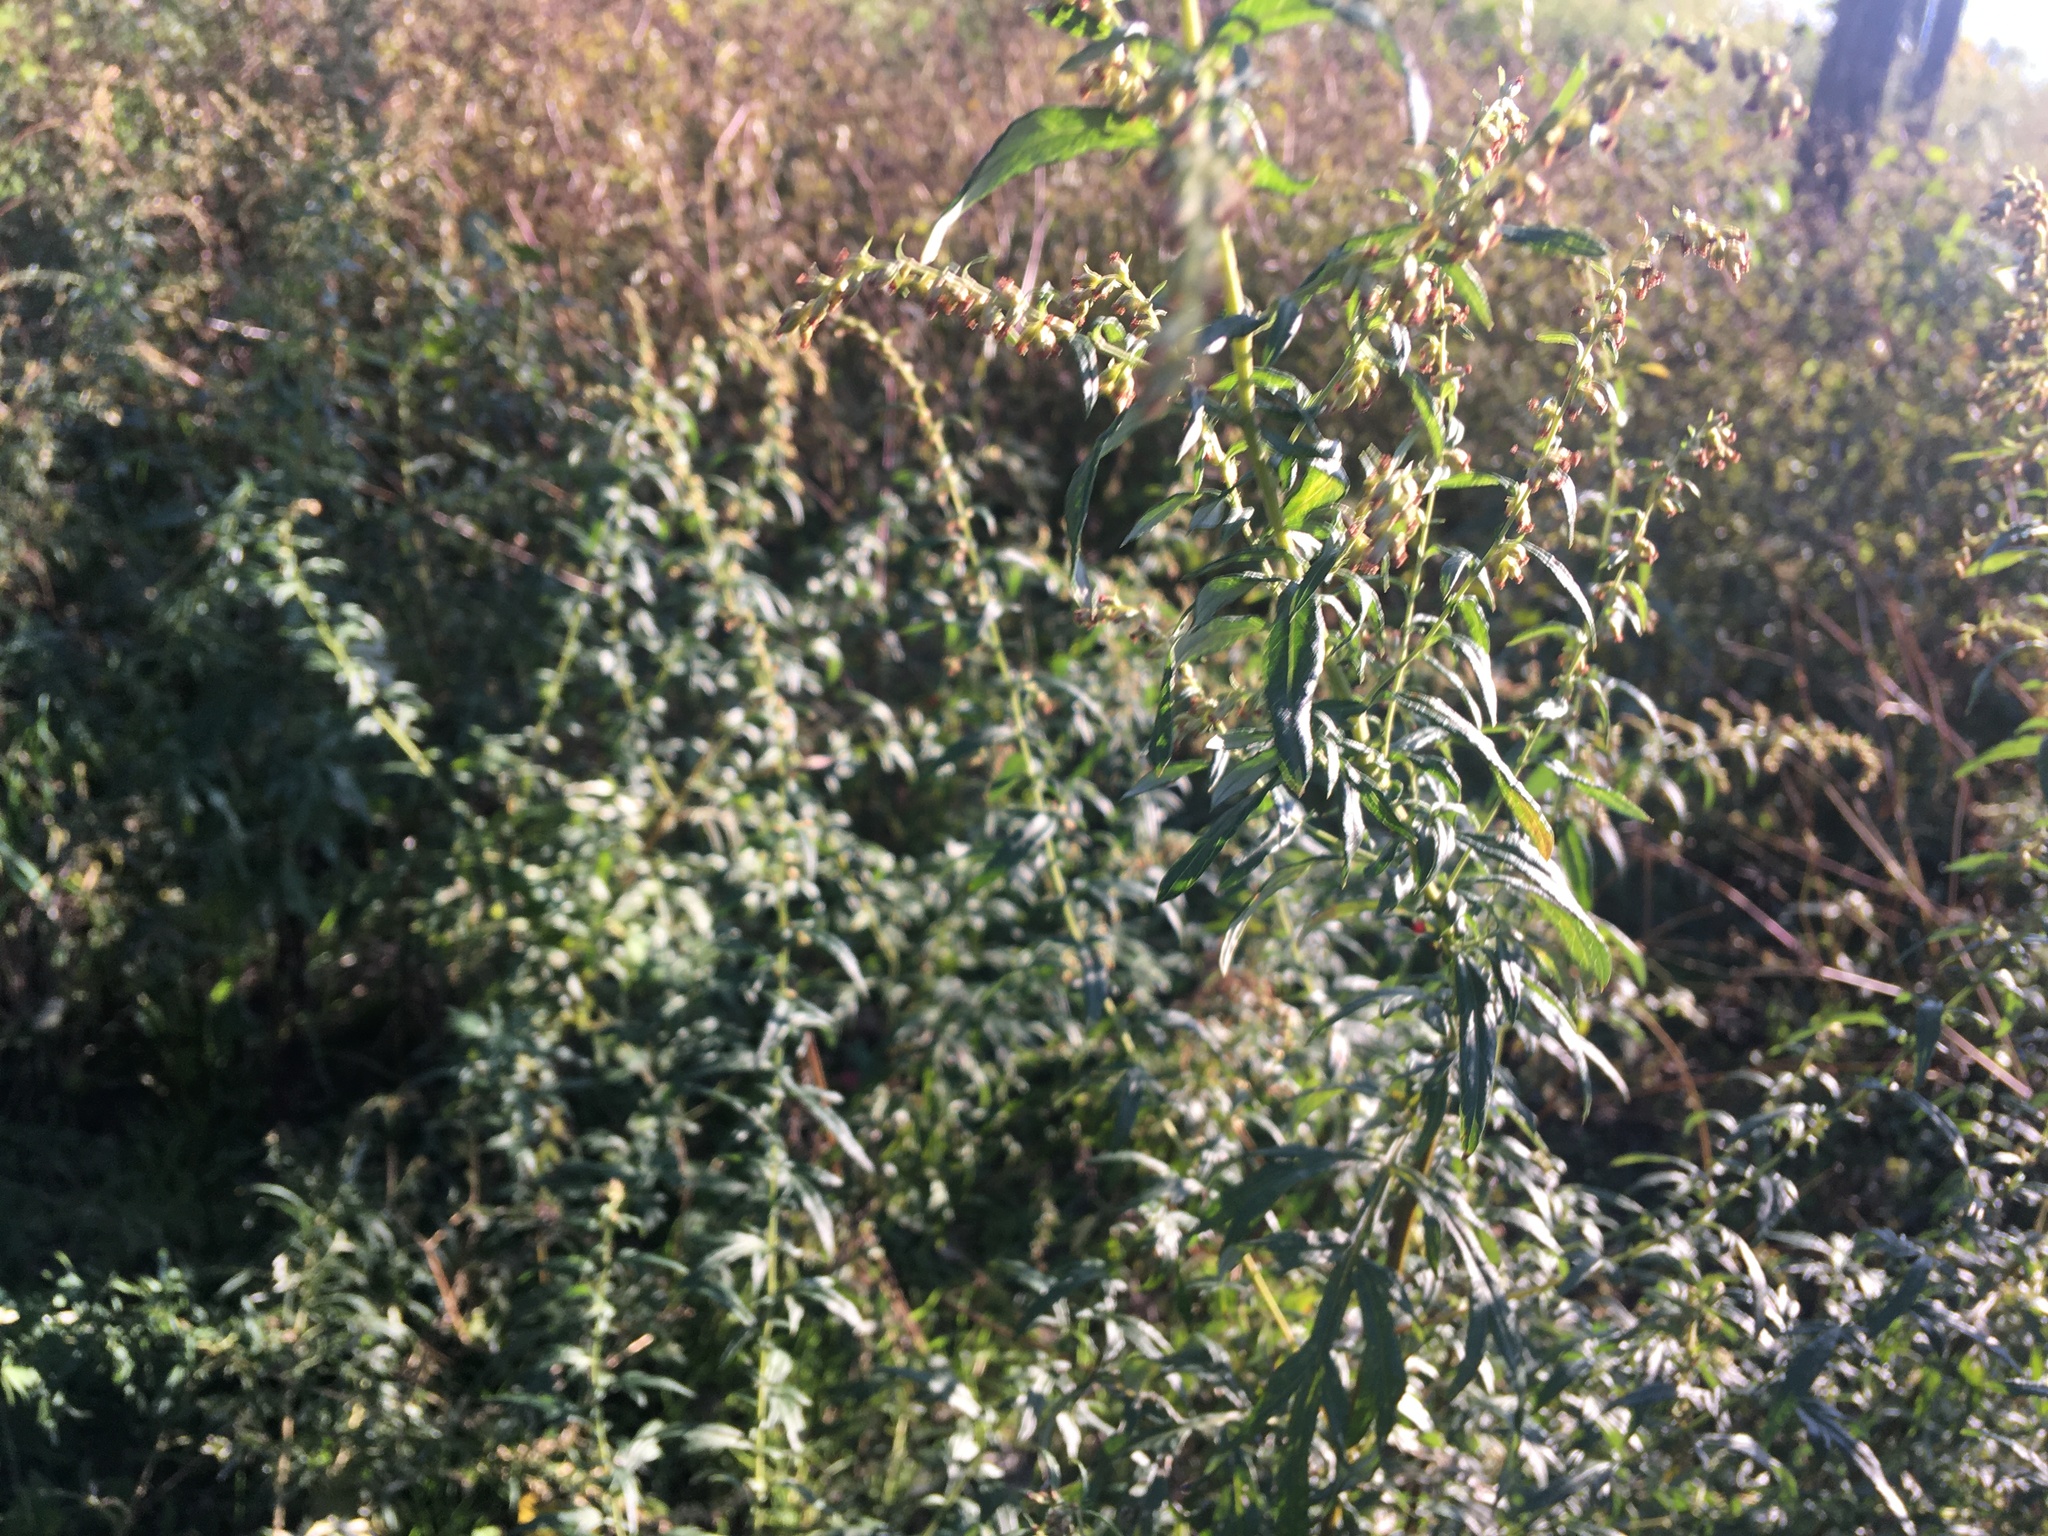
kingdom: Plantae
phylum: Tracheophyta
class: Magnoliopsida
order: Asterales
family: Asteraceae
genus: Artemisia
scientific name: Artemisia vulgaris
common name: Mugwort
